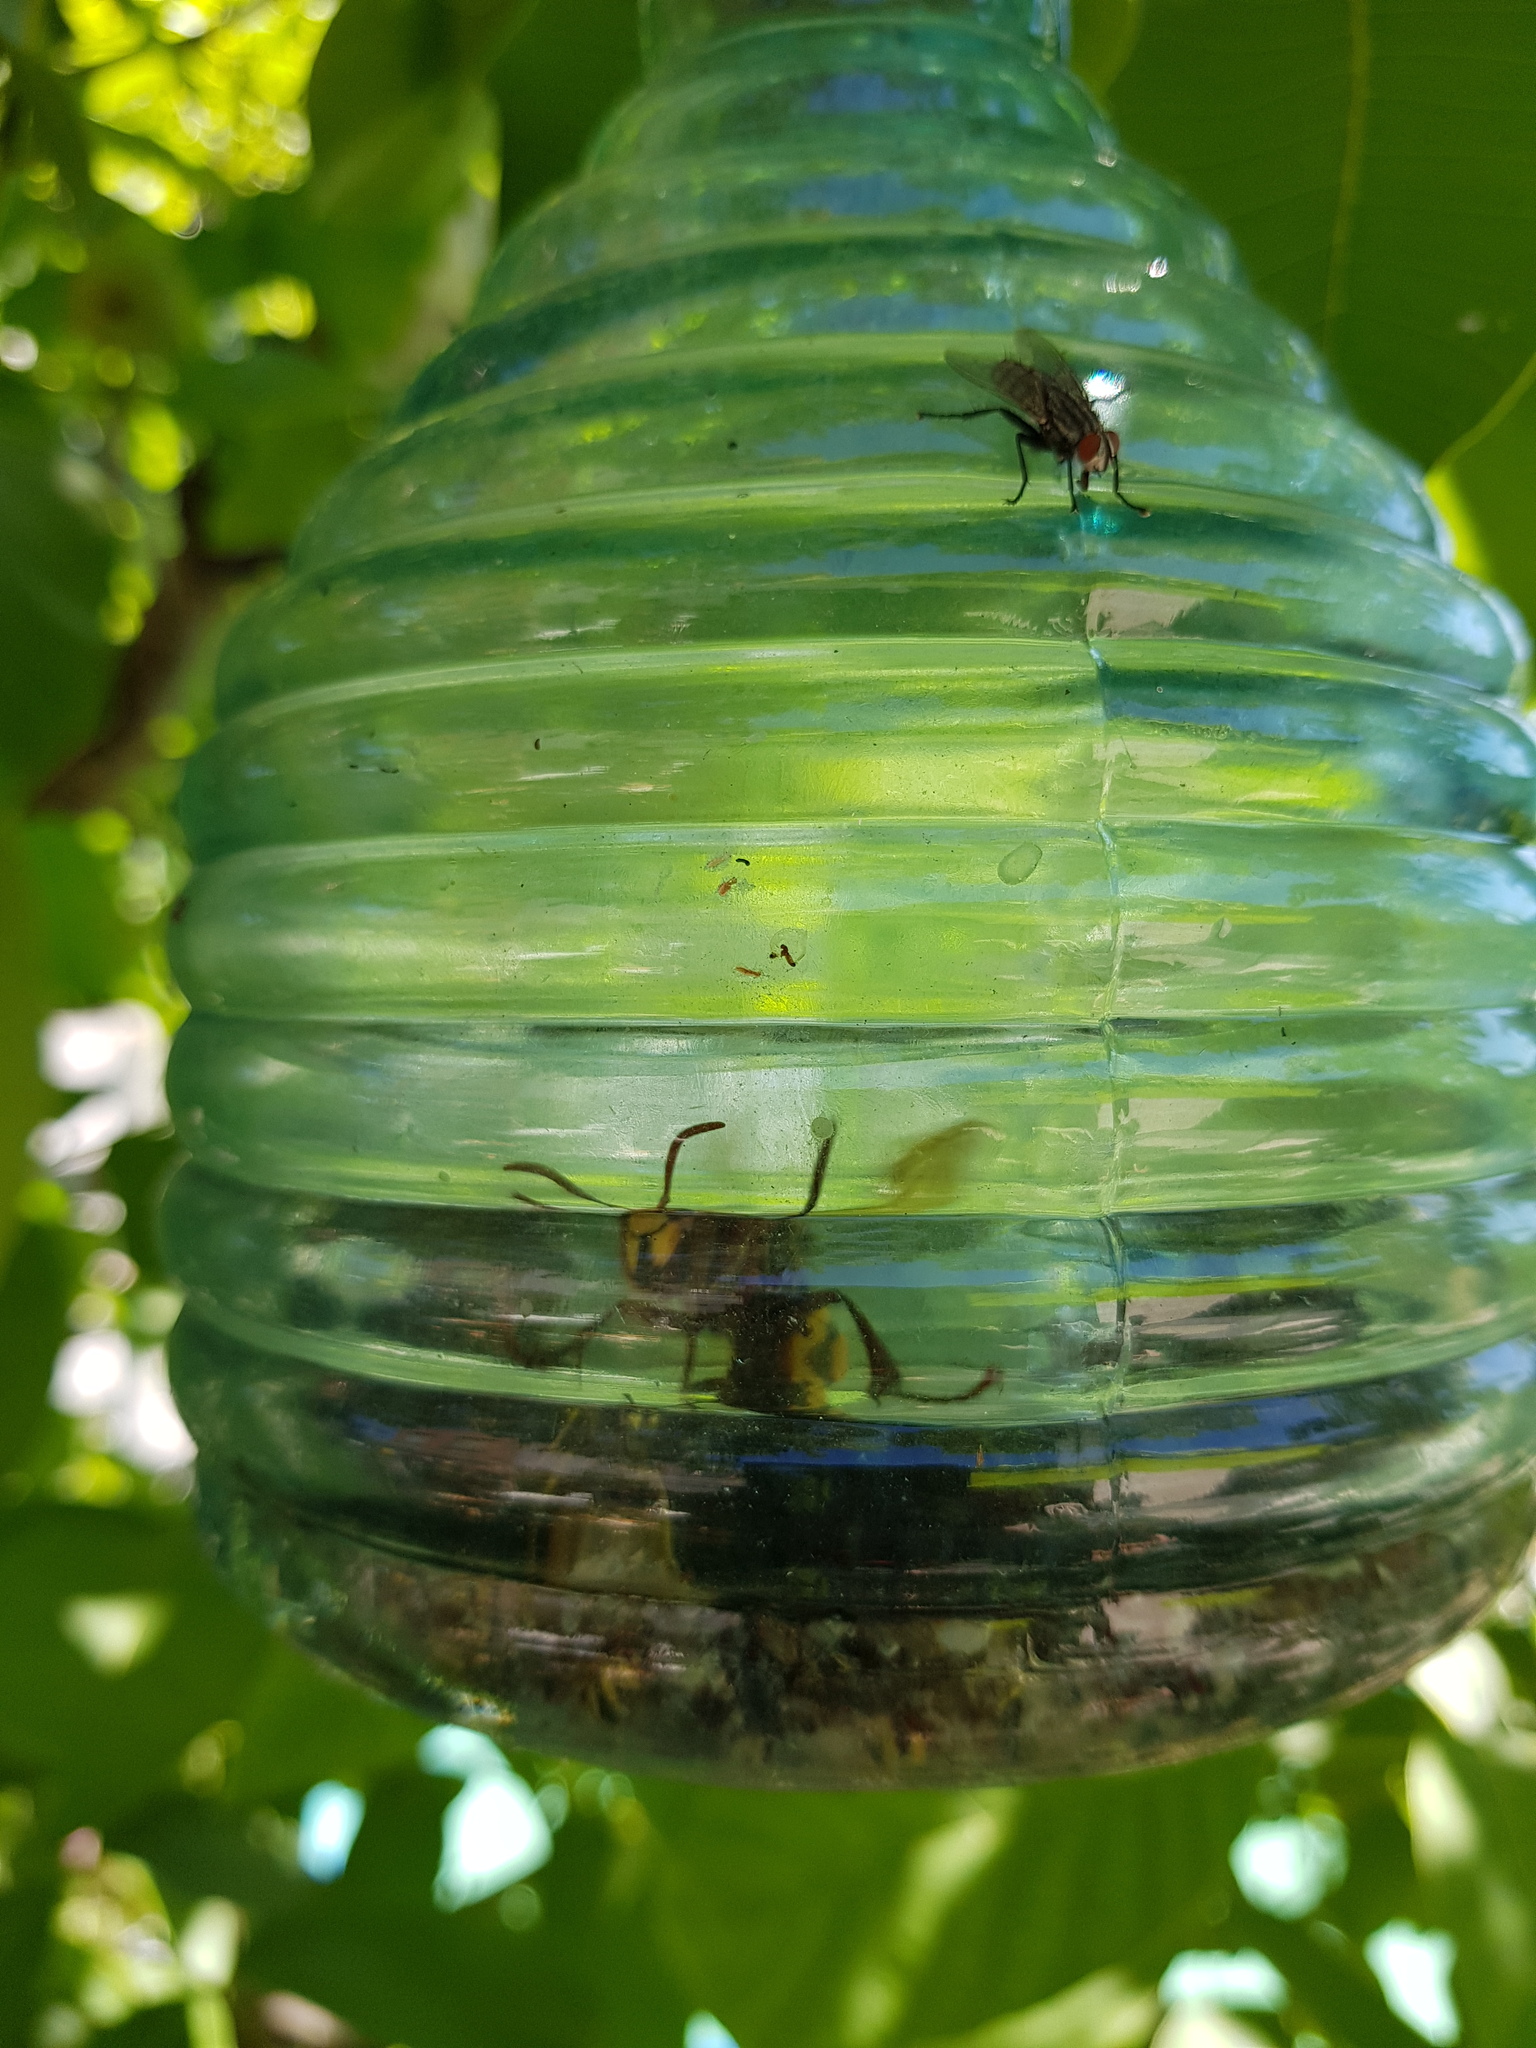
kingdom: Animalia
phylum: Arthropoda
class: Insecta
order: Hymenoptera
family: Vespidae
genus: Vespa
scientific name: Vespa crabro
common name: Hornet
